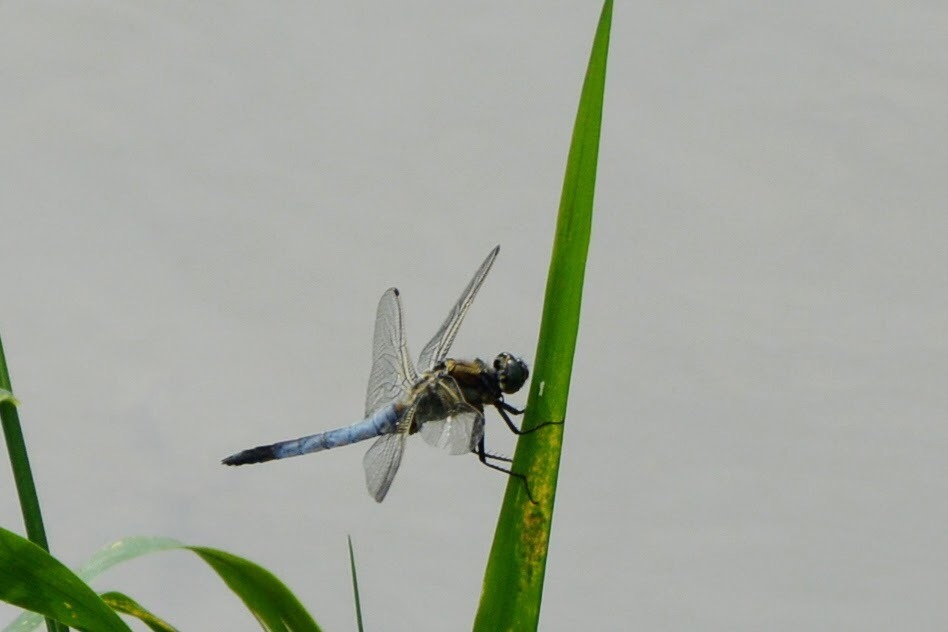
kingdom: Animalia
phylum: Arthropoda
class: Insecta
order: Odonata
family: Libellulidae
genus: Orthetrum
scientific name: Orthetrum cancellatum
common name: Black-tailed skimmer
